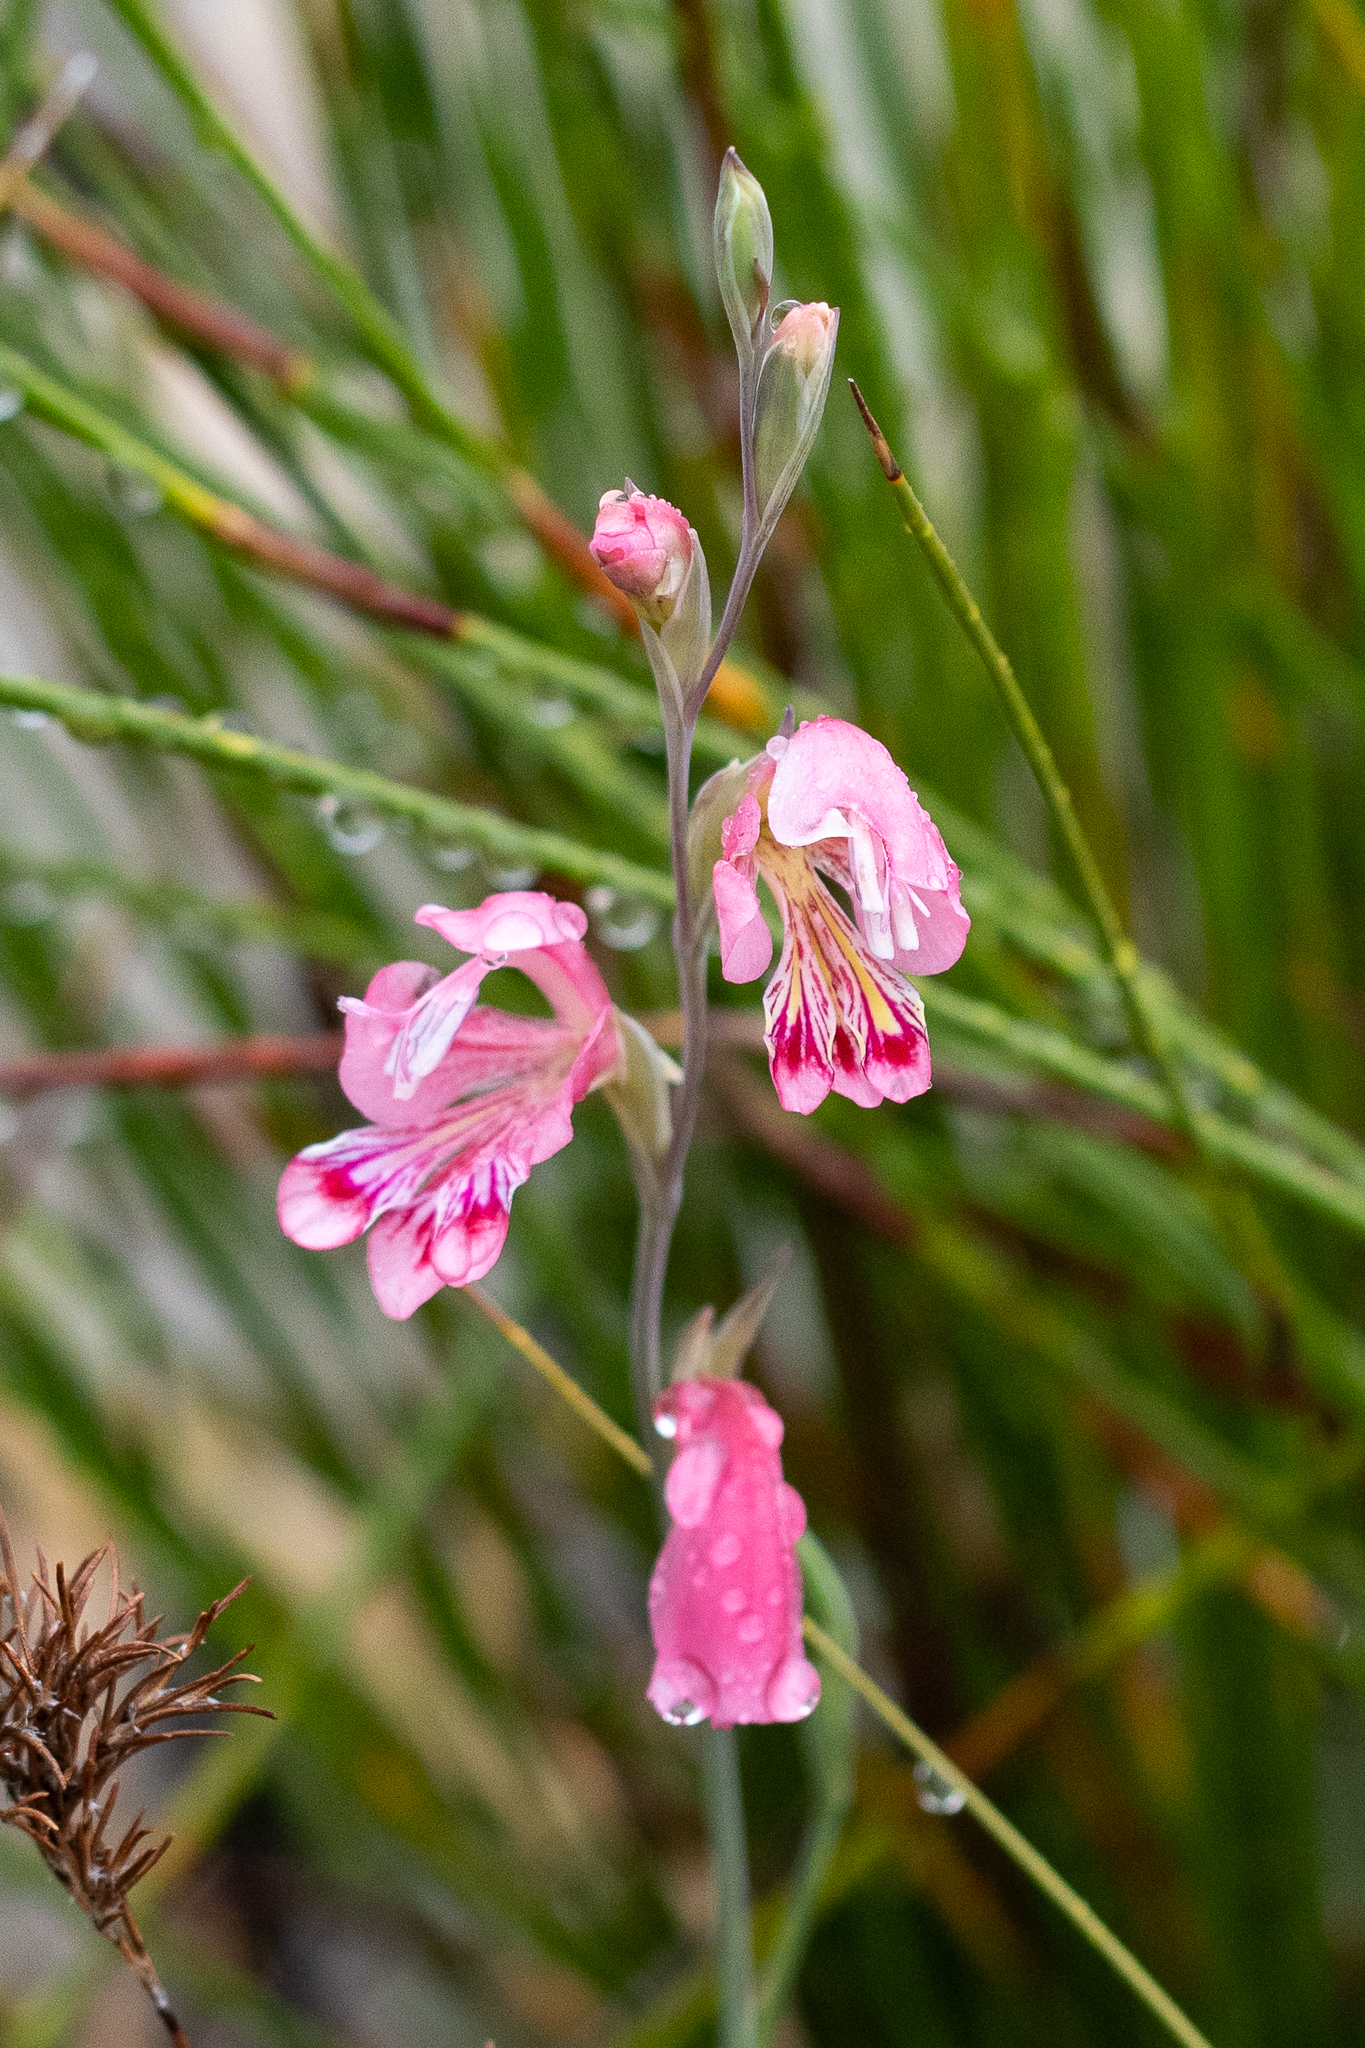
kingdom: Plantae
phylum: Tracheophyta
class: Liliopsida
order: Asparagales
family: Iridaceae
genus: Gladiolus
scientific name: Gladiolus brevifolius
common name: March pypie
